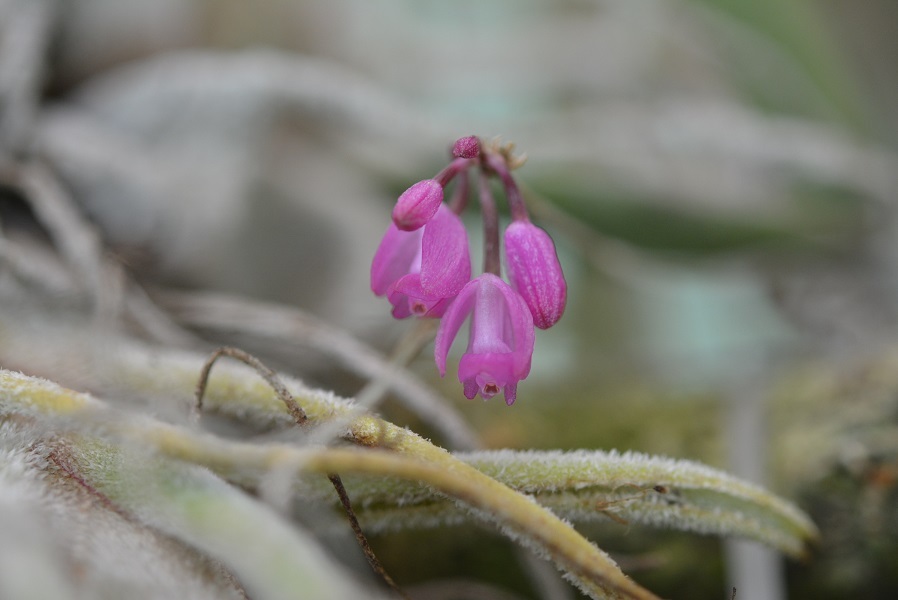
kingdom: Plantae
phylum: Tracheophyta
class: Liliopsida
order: Asparagales
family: Orchidaceae
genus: Domingoa
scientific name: Domingoa purpurea
